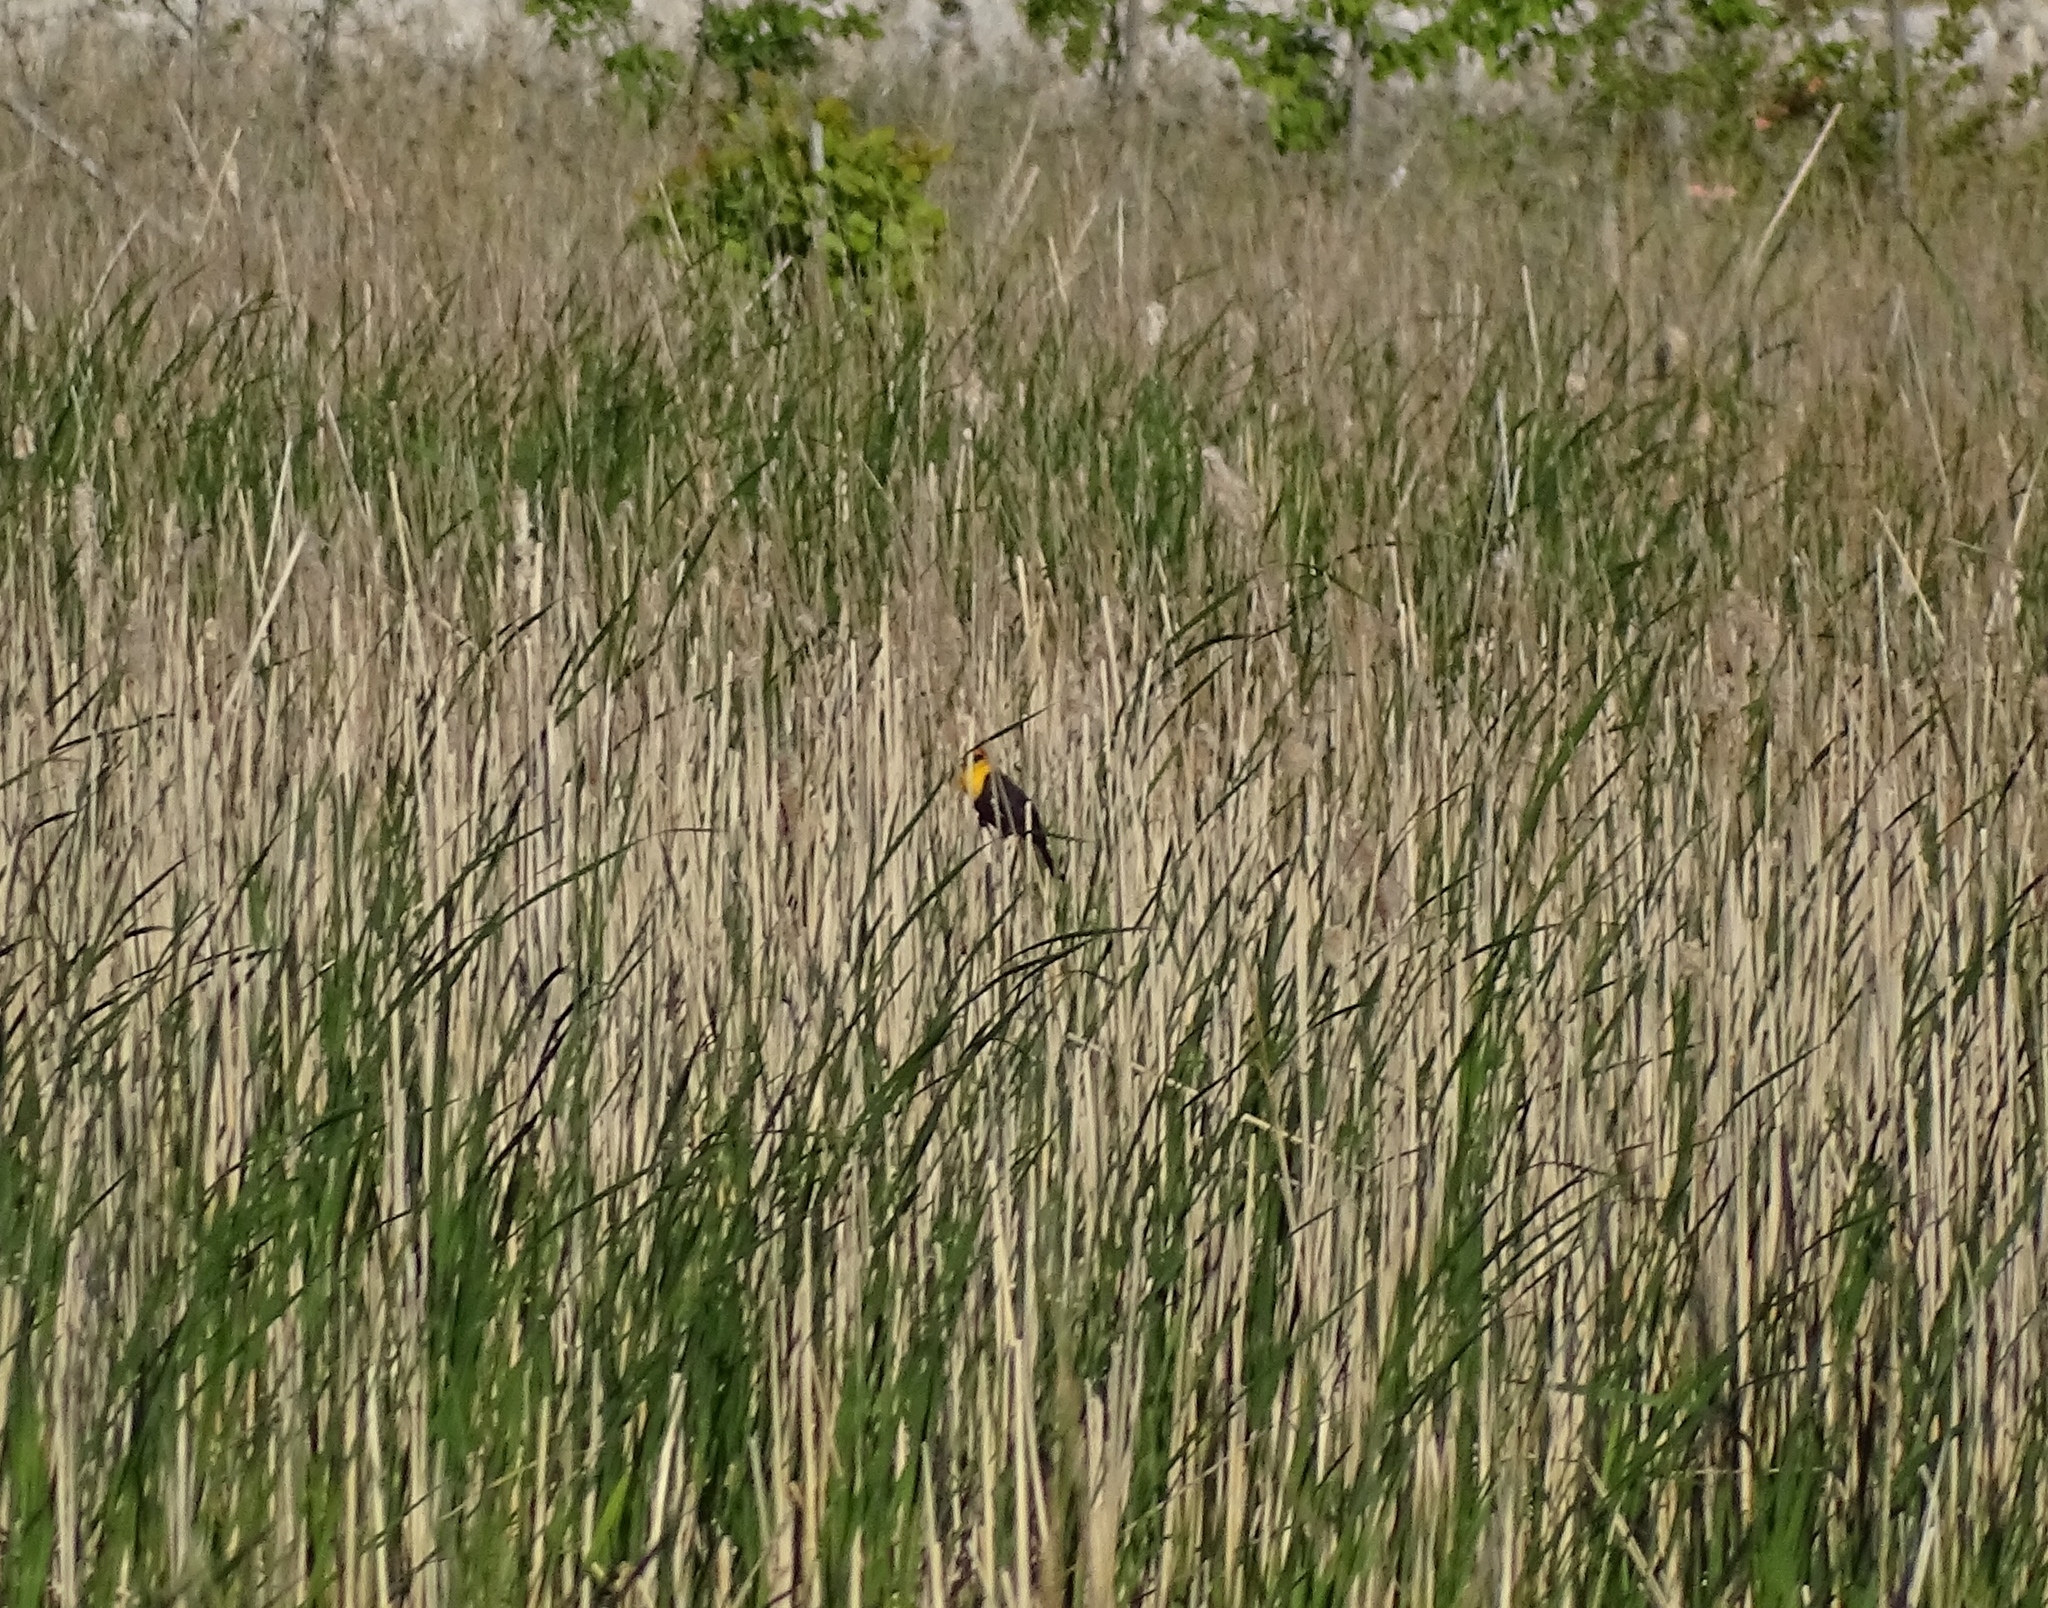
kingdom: Animalia
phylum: Chordata
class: Aves
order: Passeriformes
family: Icteridae
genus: Xanthocephalus
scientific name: Xanthocephalus xanthocephalus
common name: Yellow-headed blackbird
